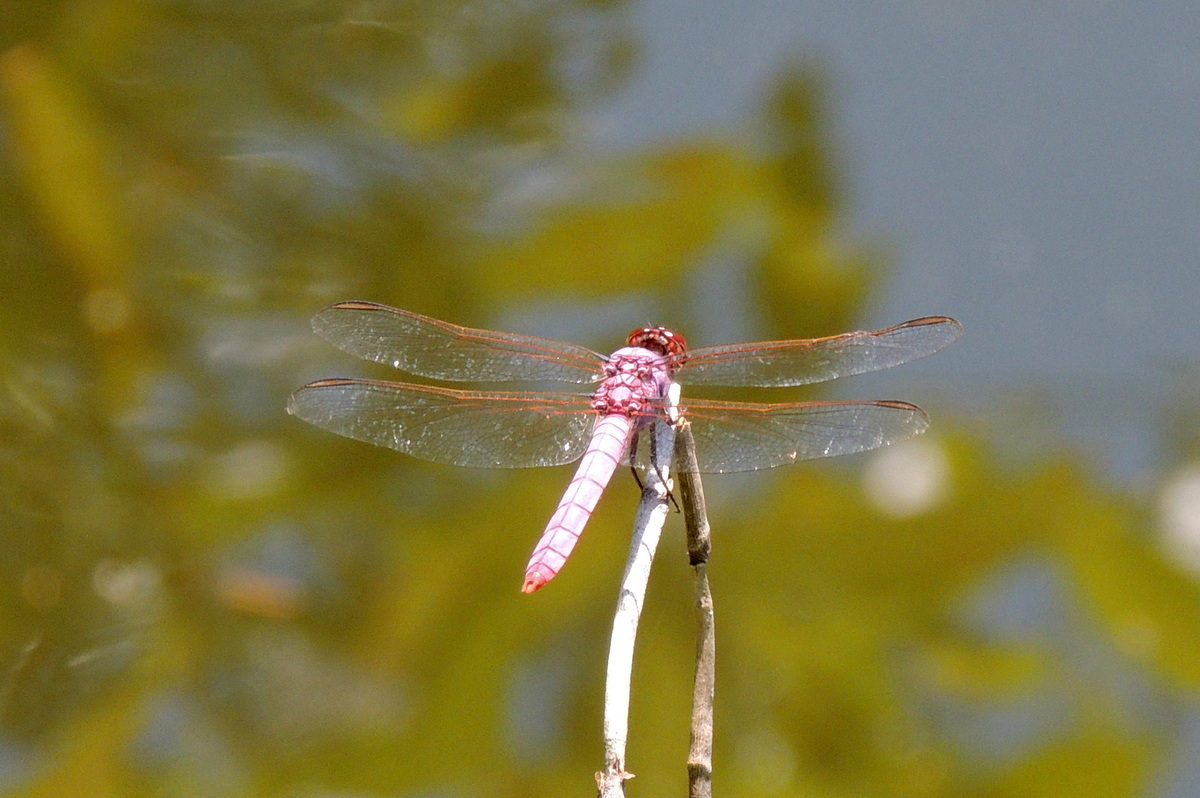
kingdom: Animalia
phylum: Arthropoda
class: Insecta
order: Odonata
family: Libellulidae
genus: Orthemis
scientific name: Orthemis ferruginea
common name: Roseate skimmer
